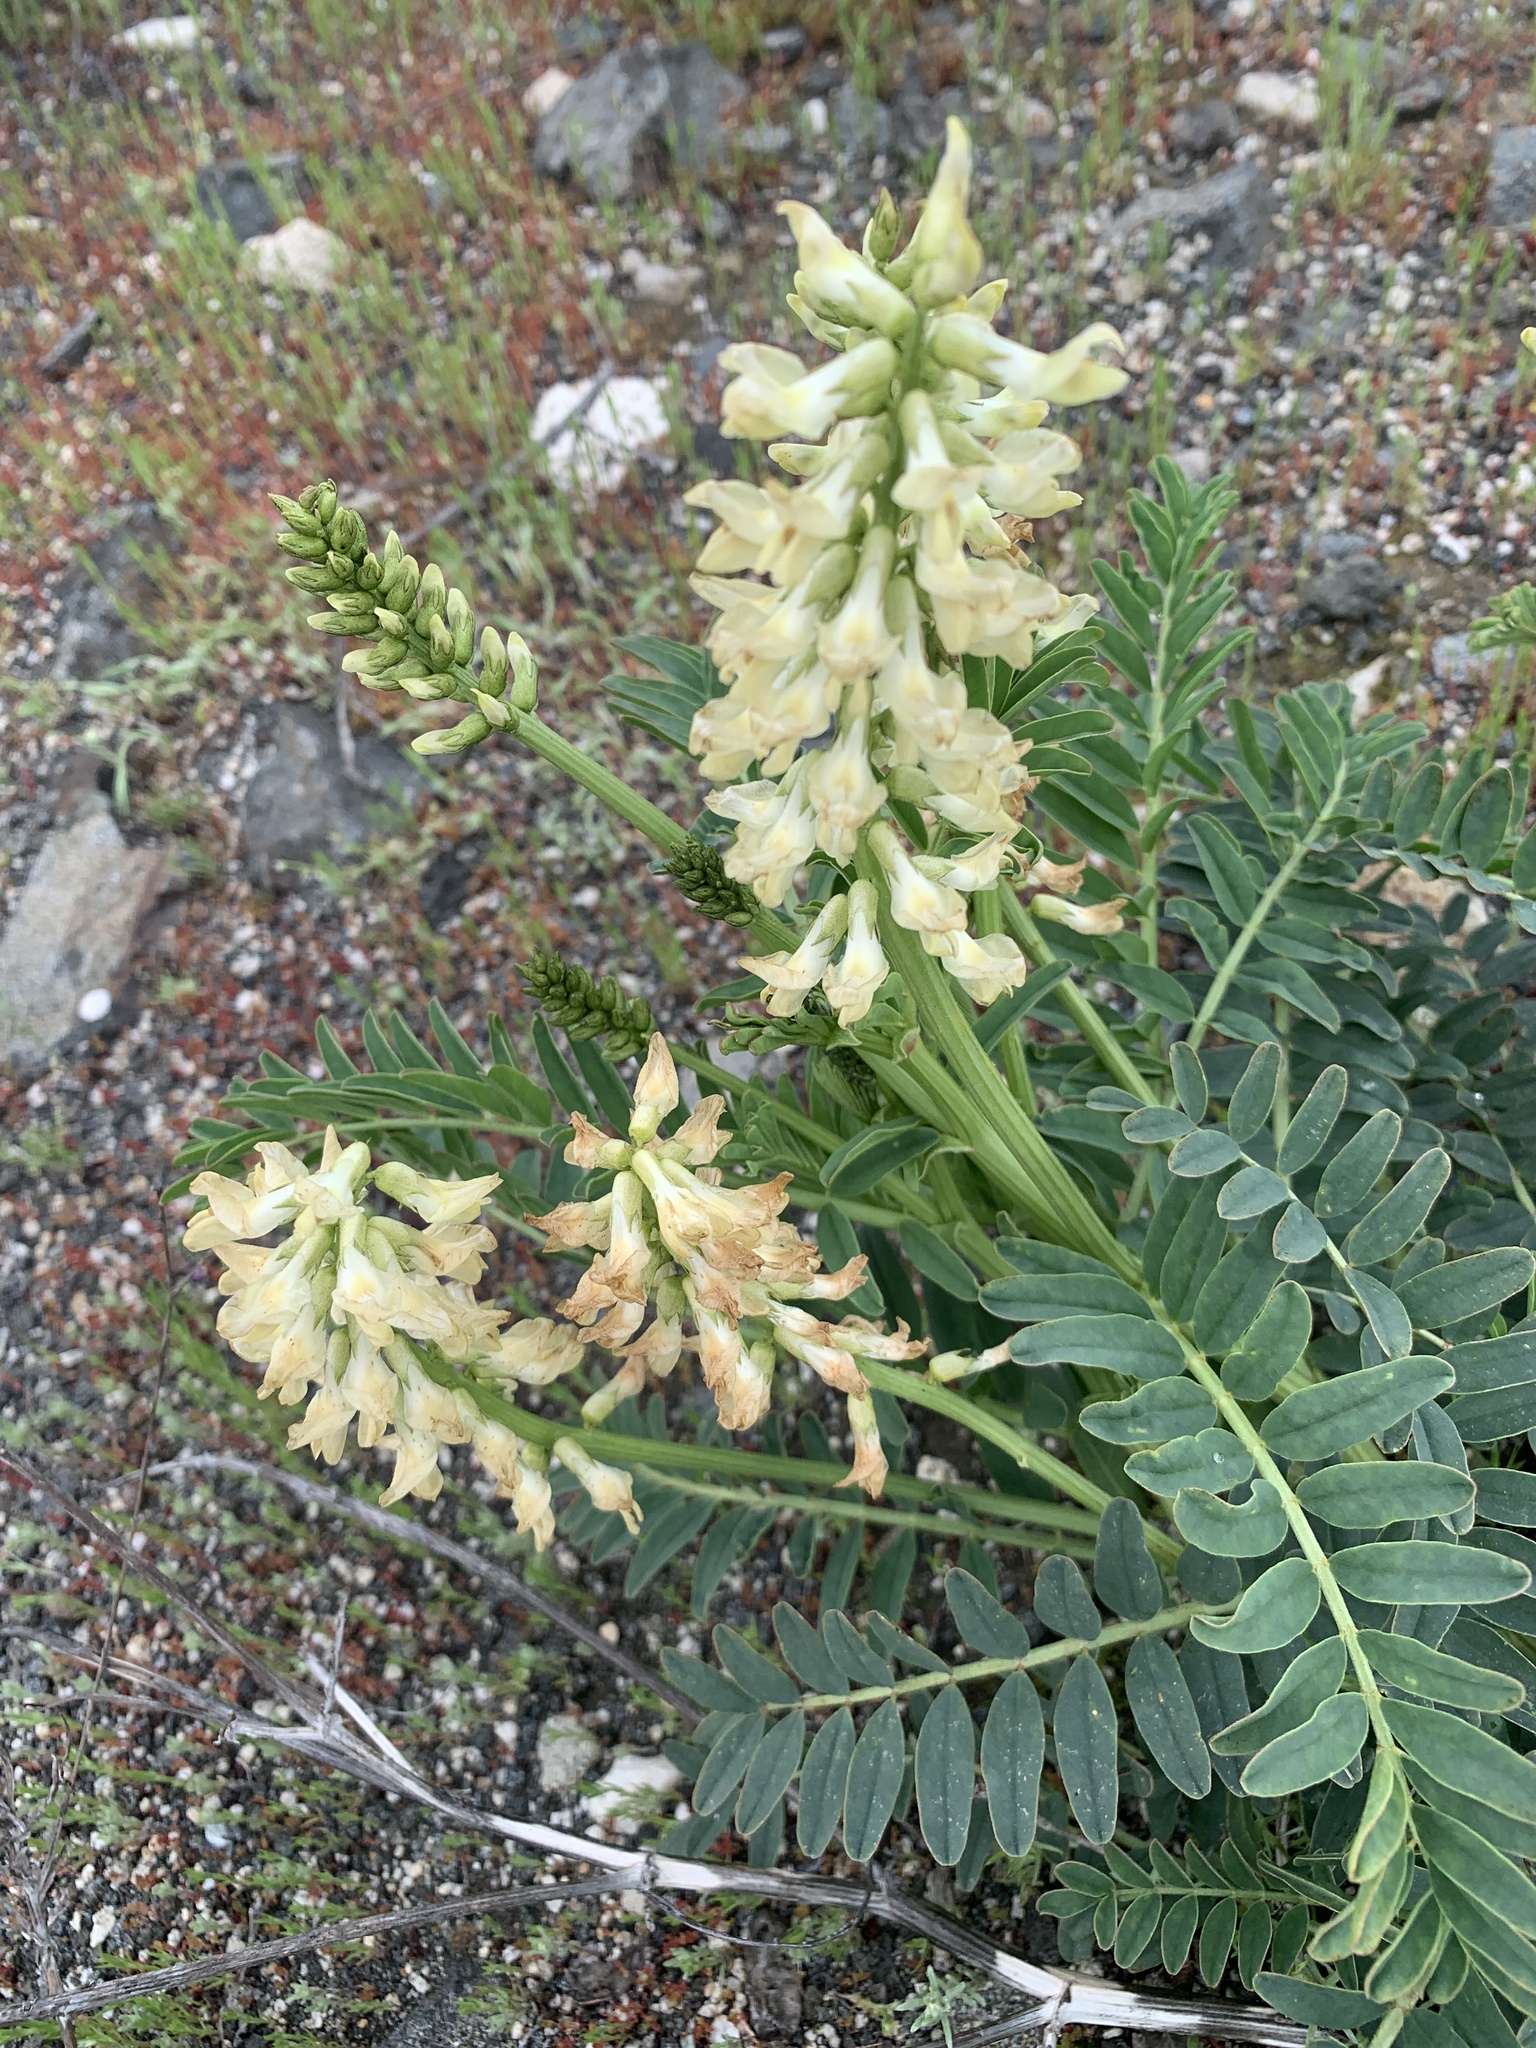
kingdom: Plantae
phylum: Tracheophyta
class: Magnoliopsida
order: Fabales
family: Fabaceae
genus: Astragalus
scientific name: Astragalus pomonensis
